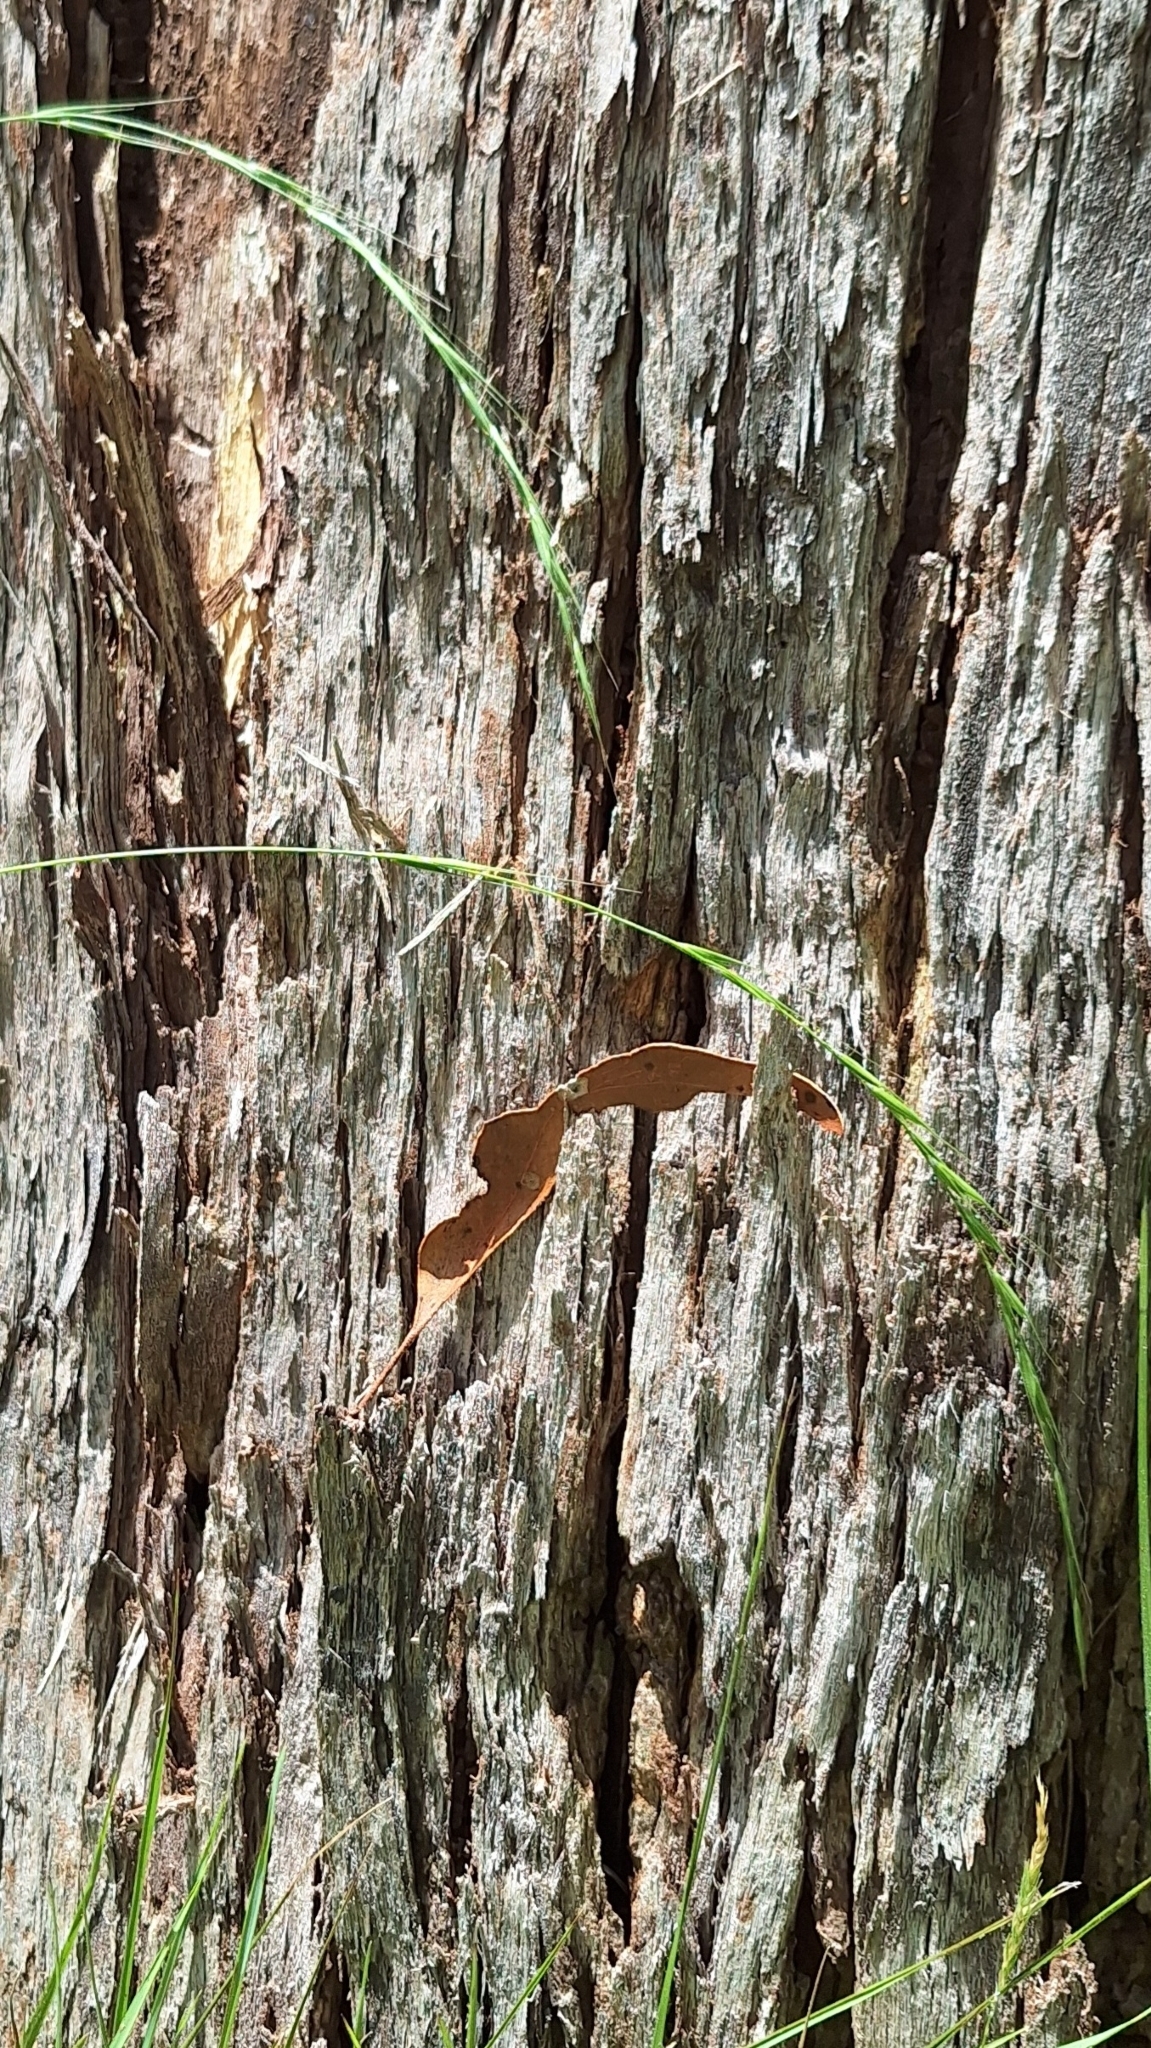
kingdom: Plantae
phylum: Tracheophyta
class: Liliopsida
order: Poales
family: Poaceae
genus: Microlaena
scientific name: Microlaena stipoides
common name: Meadow ricegrass
